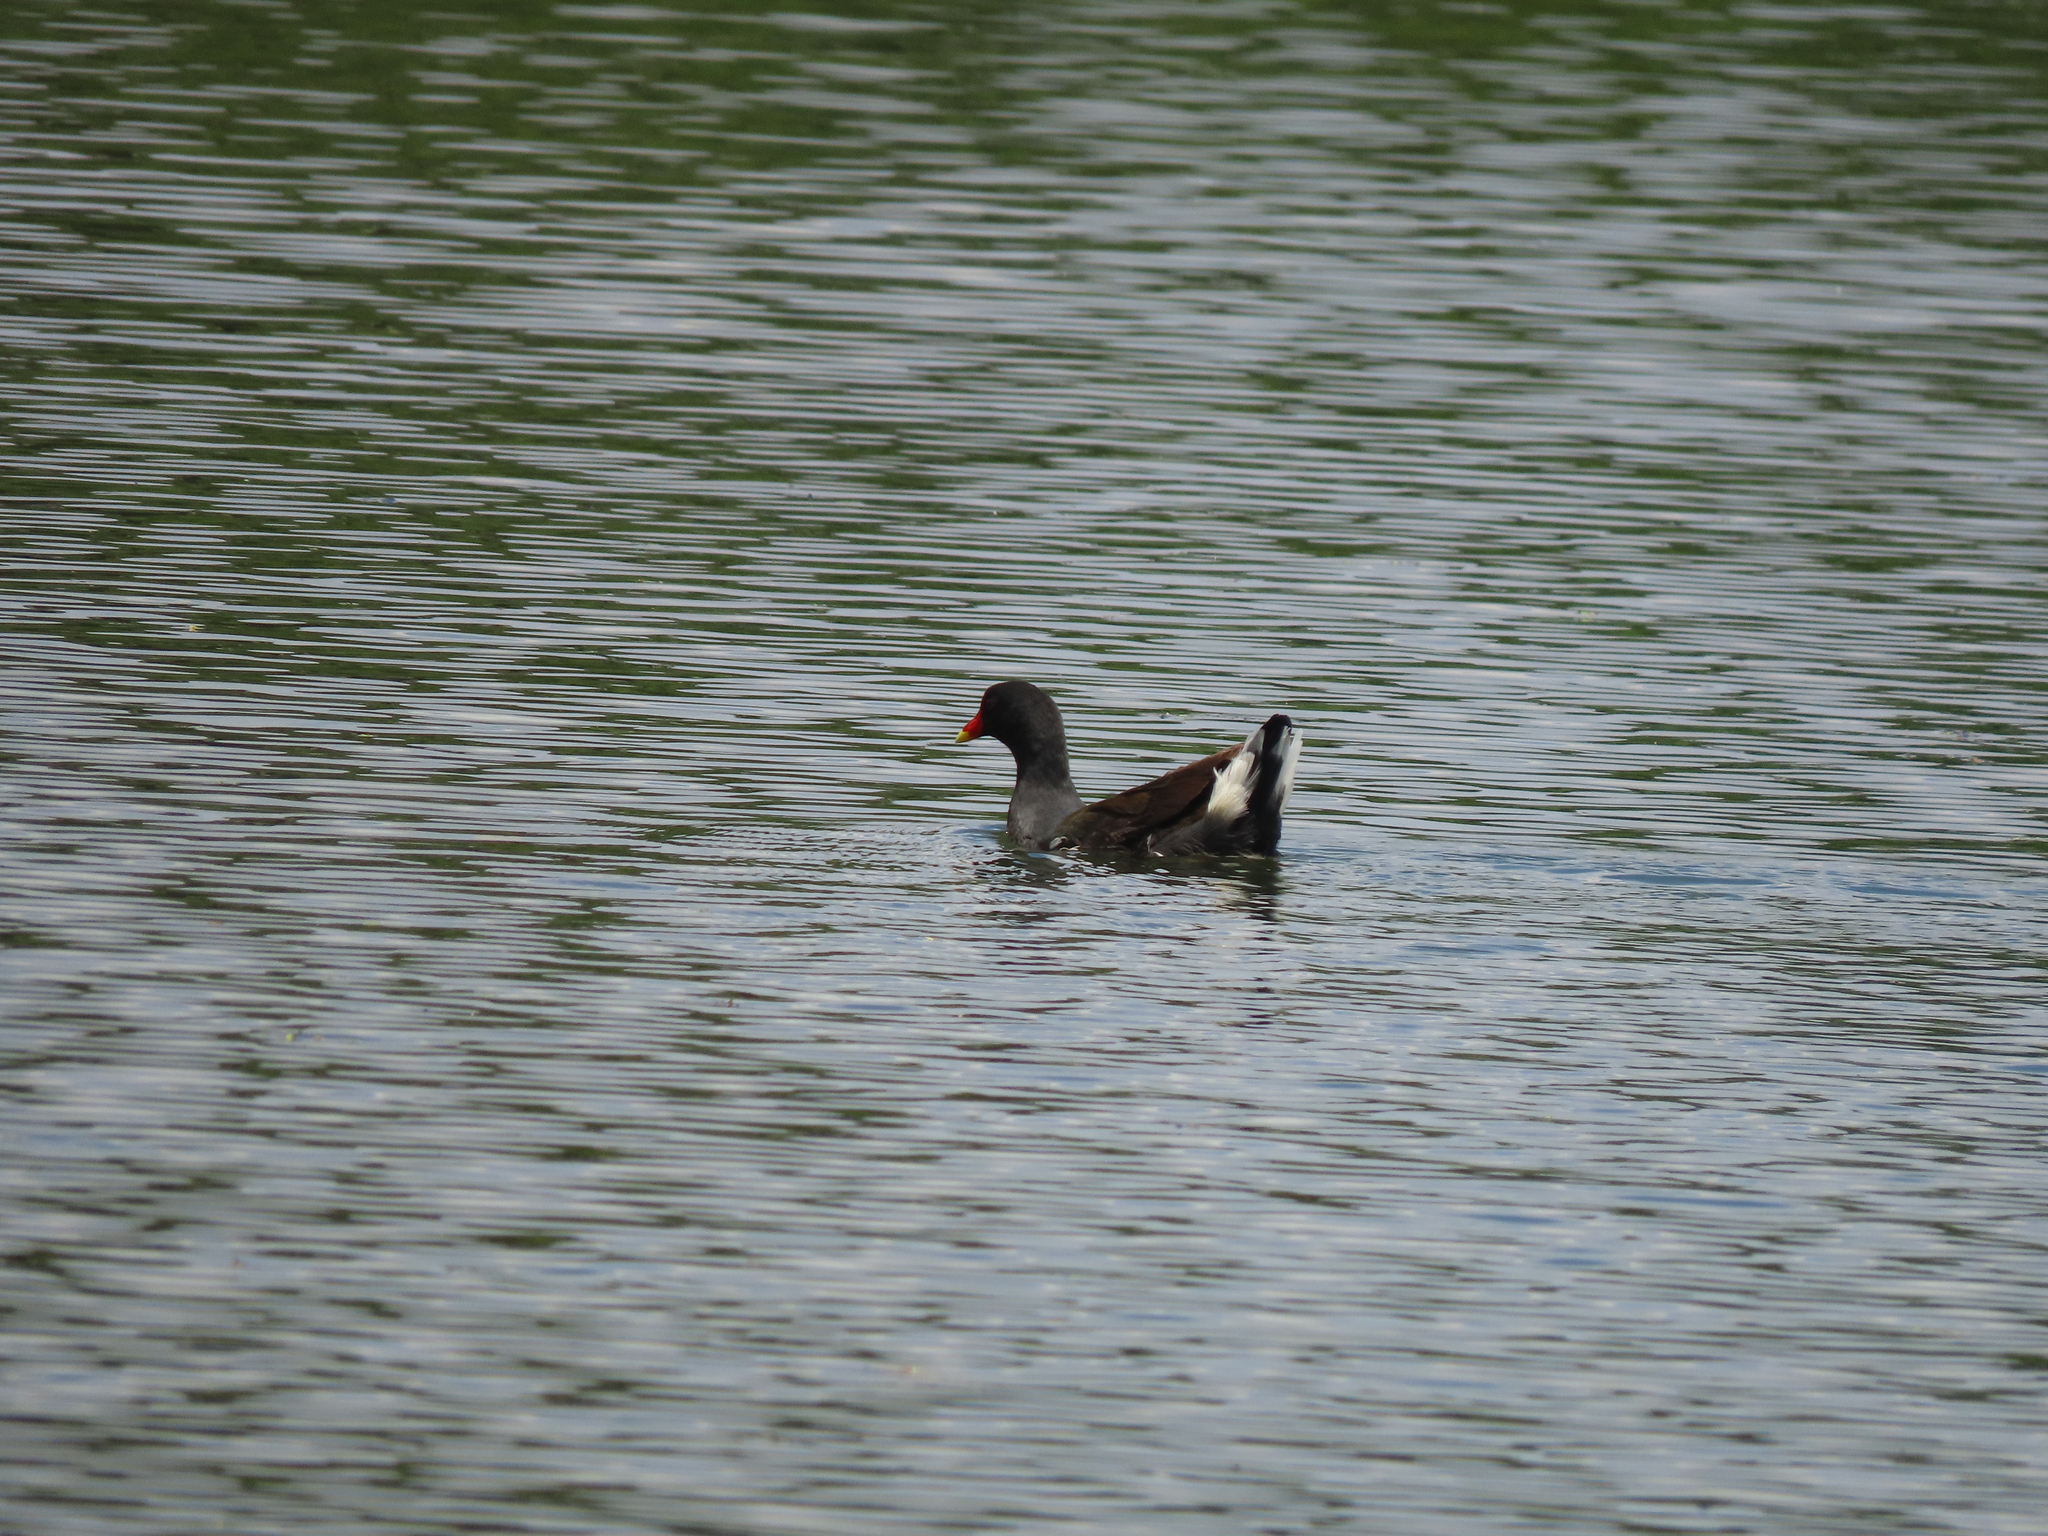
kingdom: Animalia
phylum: Chordata
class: Aves
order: Gruiformes
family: Rallidae
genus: Gallinula
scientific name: Gallinula chloropus
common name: Common moorhen
